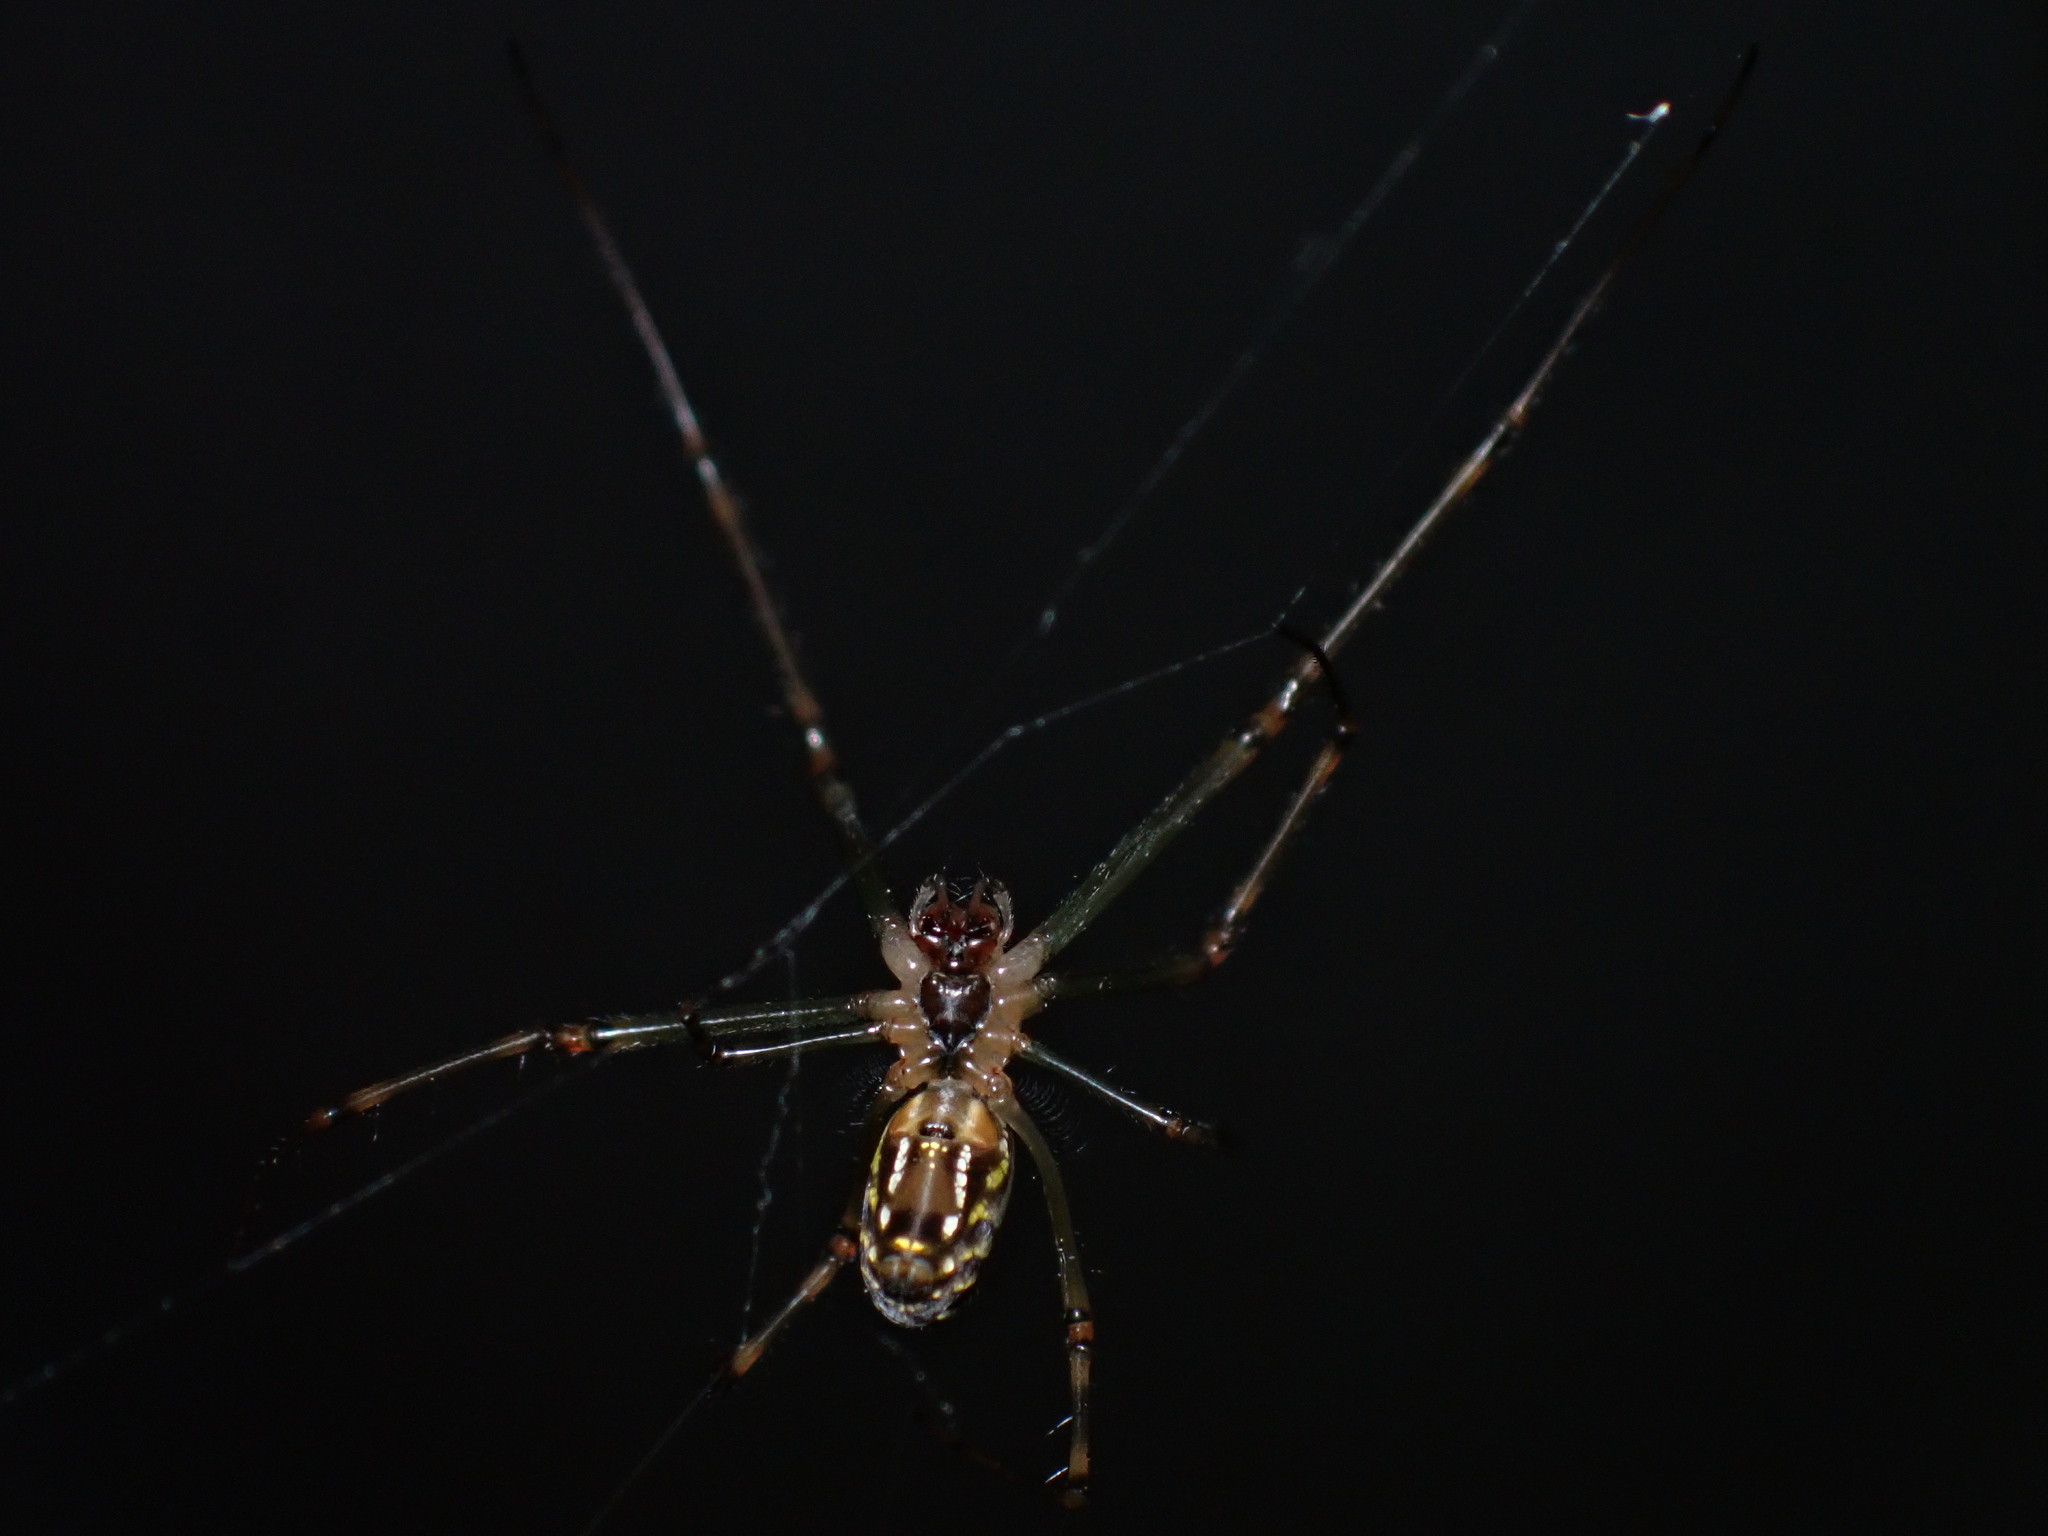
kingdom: Animalia
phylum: Arthropoda
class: Arachnida
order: Araneae
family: Tetragnathidae
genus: Leucauge
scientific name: Leucauge dromedaria
